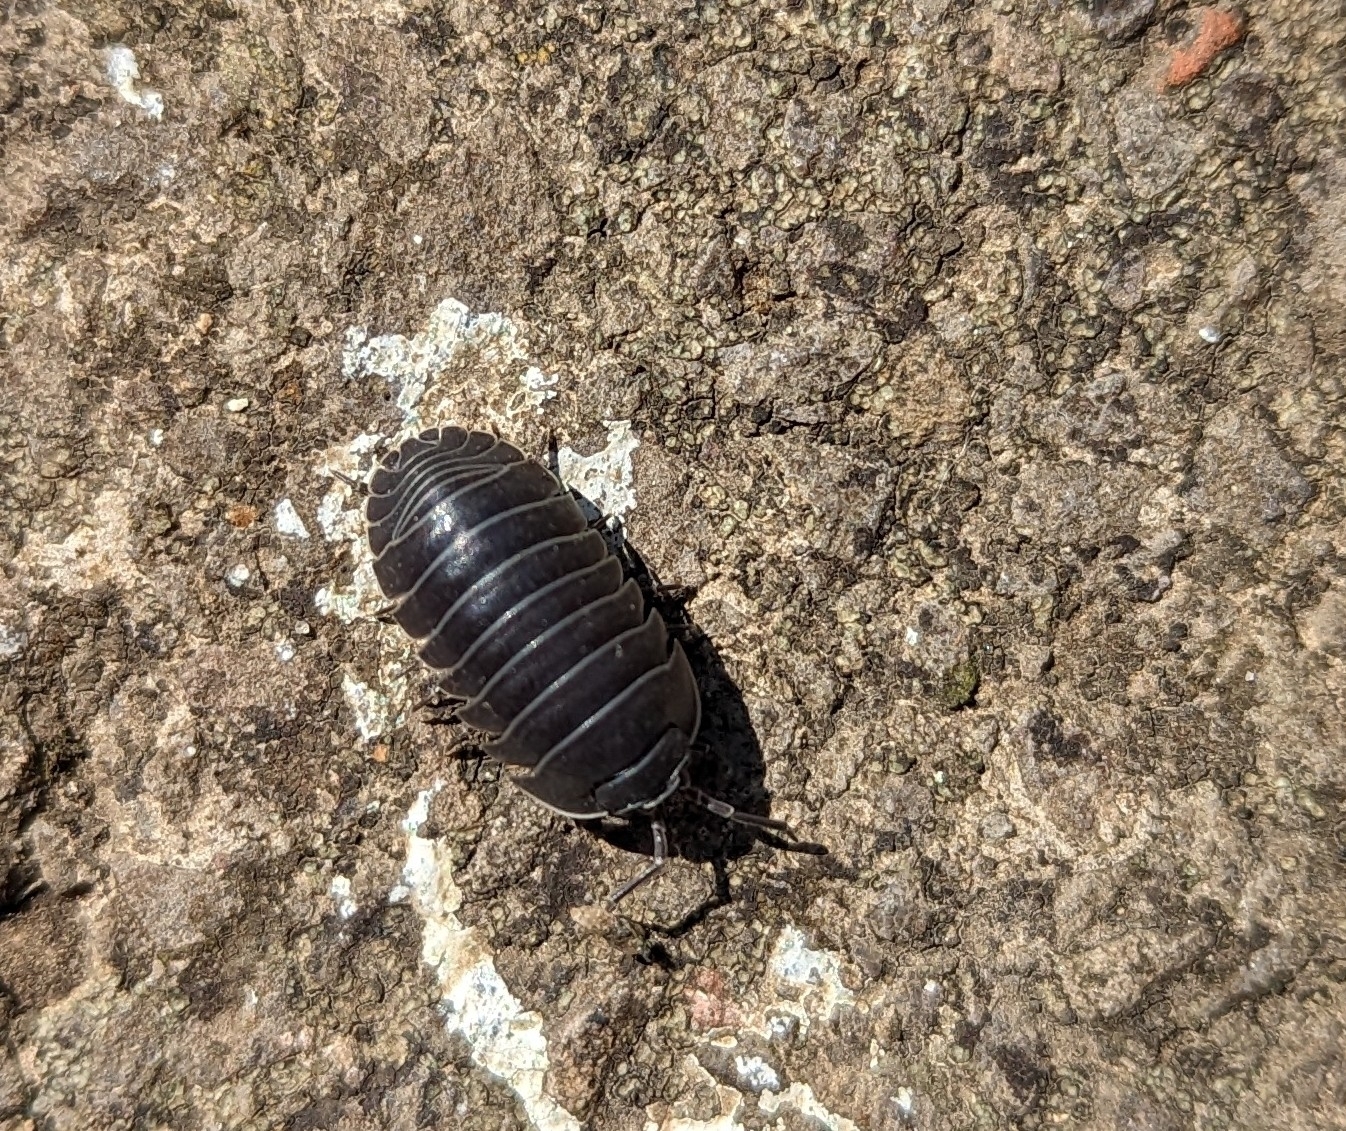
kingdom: Animalia
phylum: Arthropoda
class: Malacostraca
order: Isopoda
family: Armadillidiidae
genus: Armadillidium
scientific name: Armadillidium depressum
